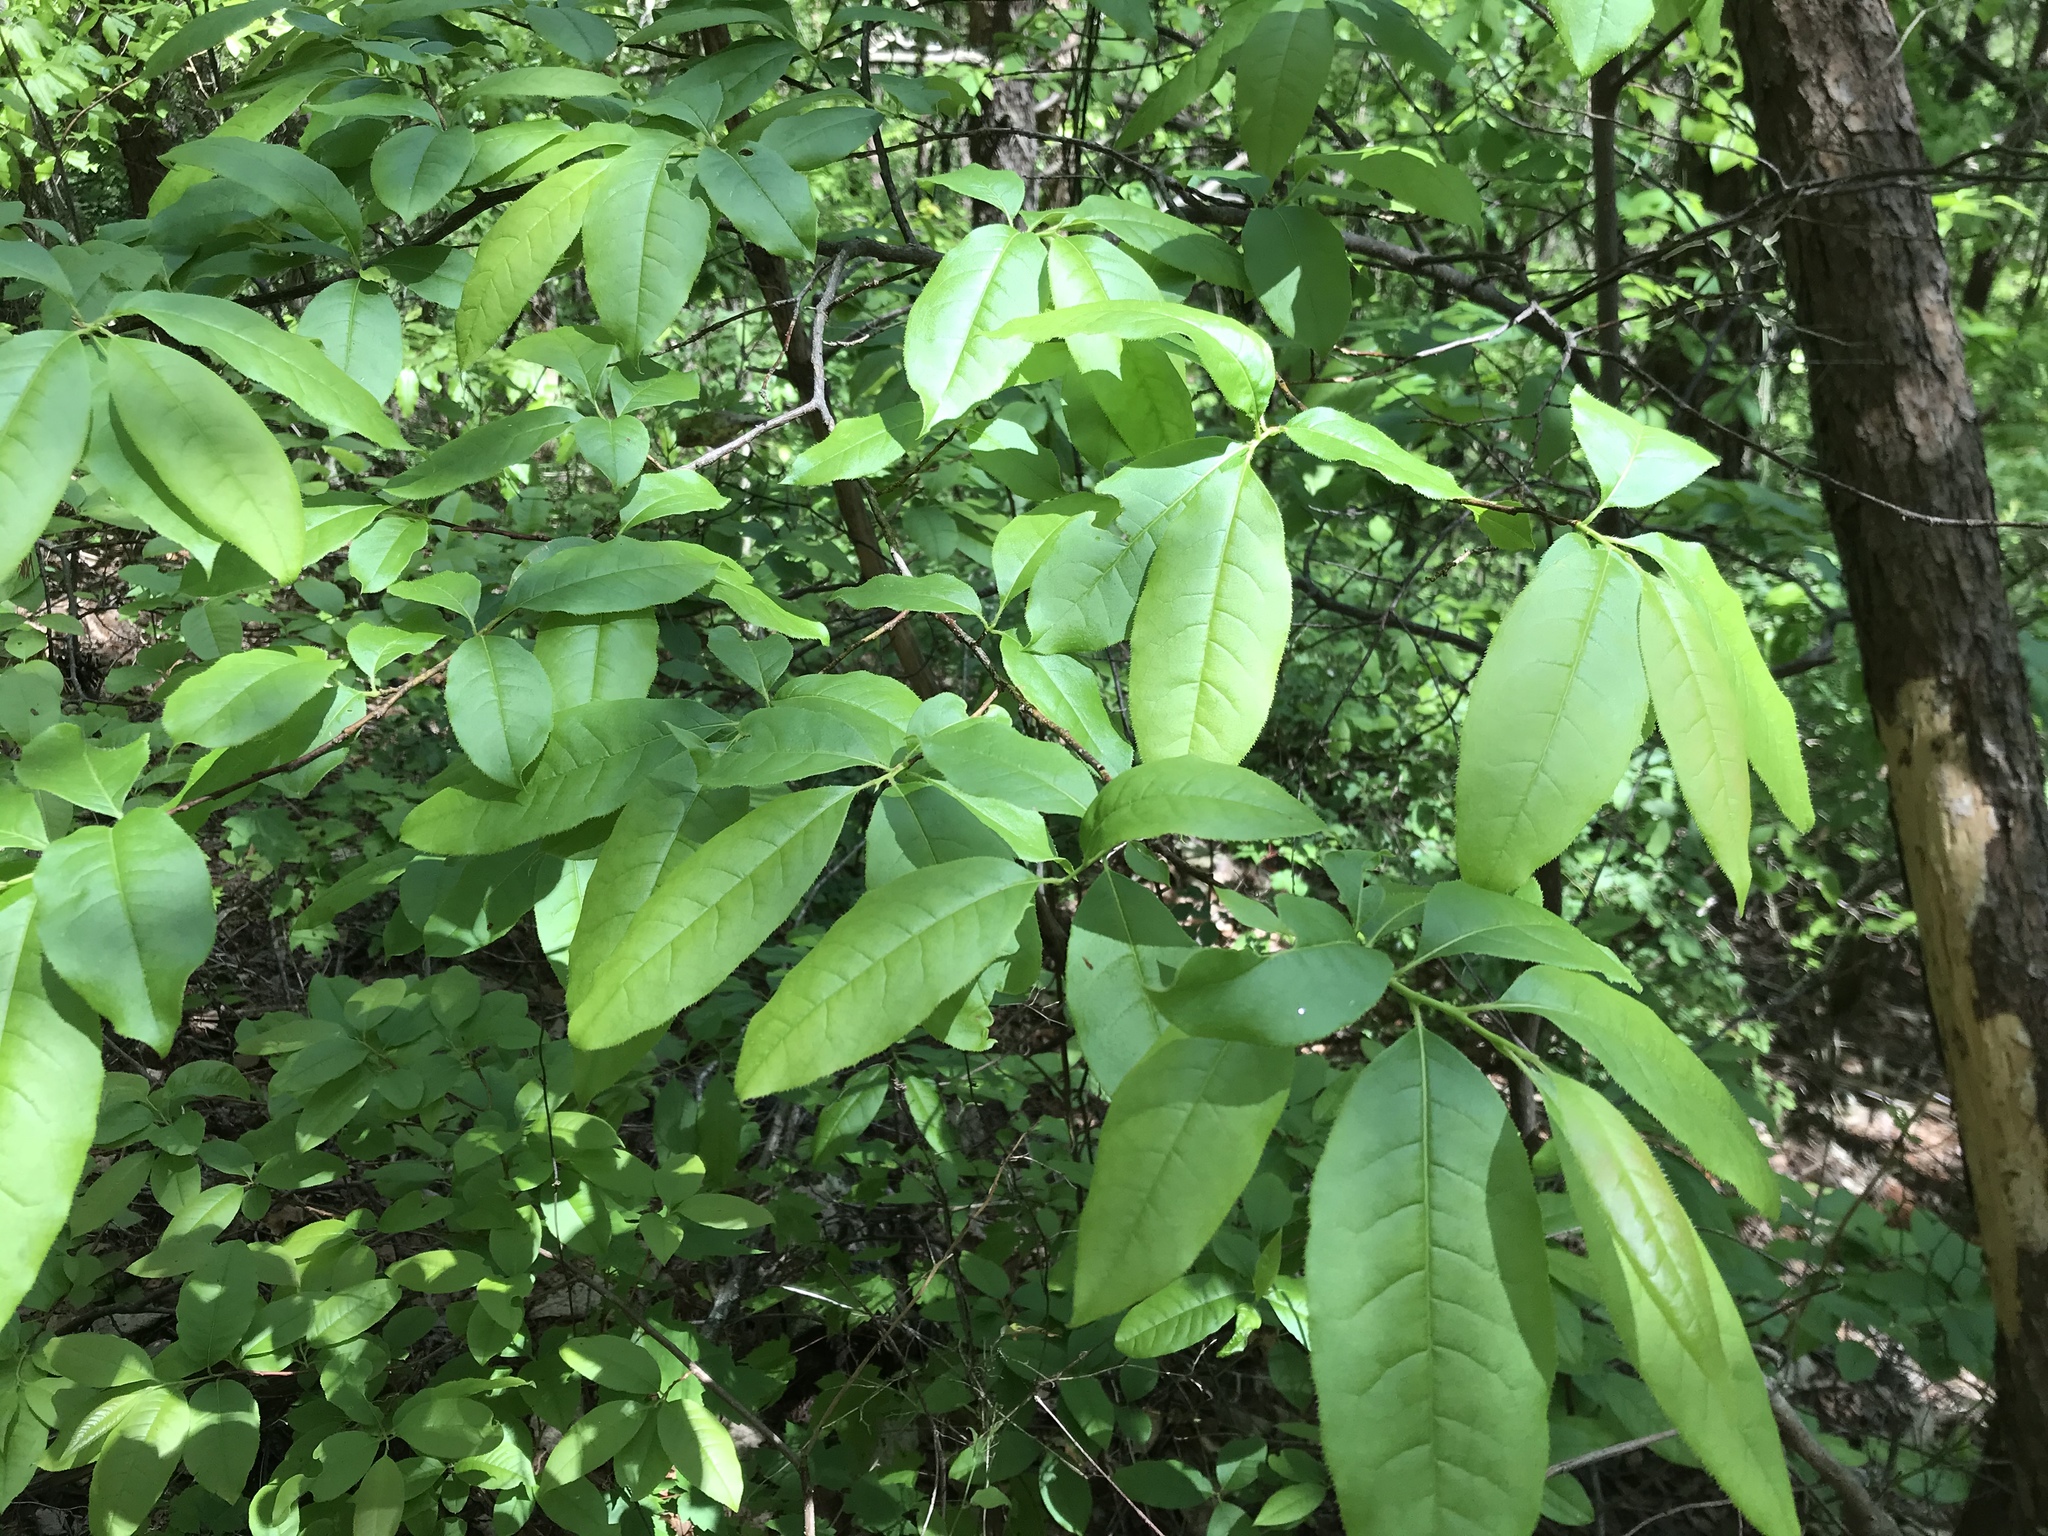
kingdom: Plantae
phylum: Tracheophyta
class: Magnoliopsida
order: Ericales
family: Ericaceae
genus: Oxydendrum
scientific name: Oxydendrum arboreum
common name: Sourwood
